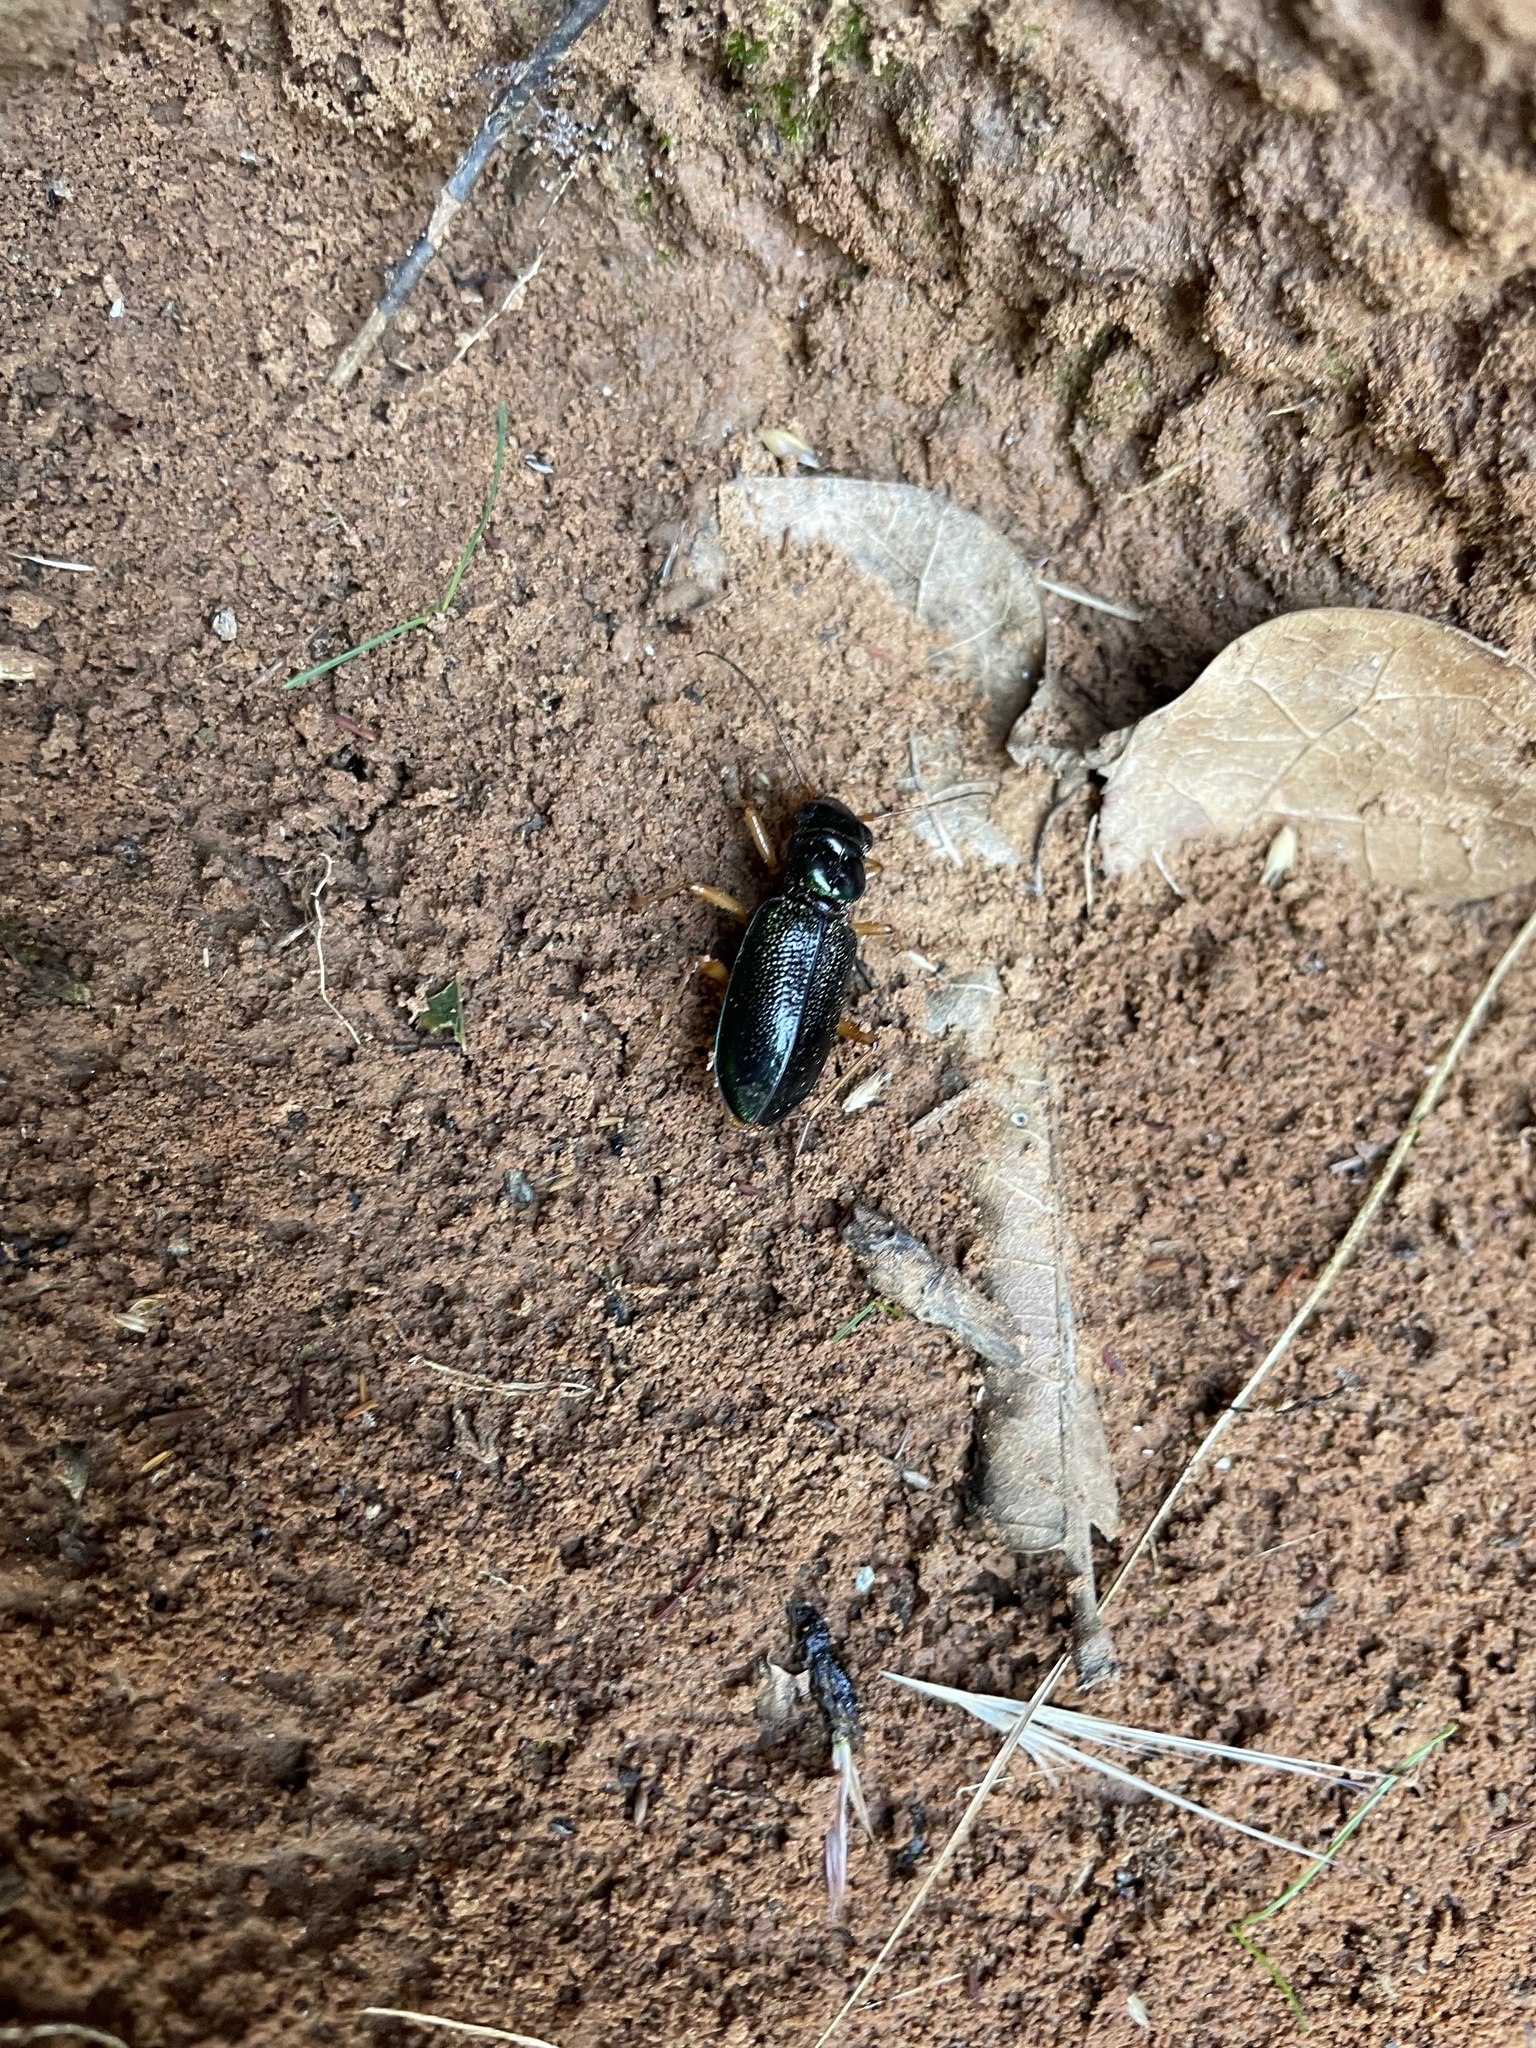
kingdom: Animalia
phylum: Arthropoda
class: Insecta
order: Coleoptera
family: Carabidae
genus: Tetracha
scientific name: Tetracha virginica
